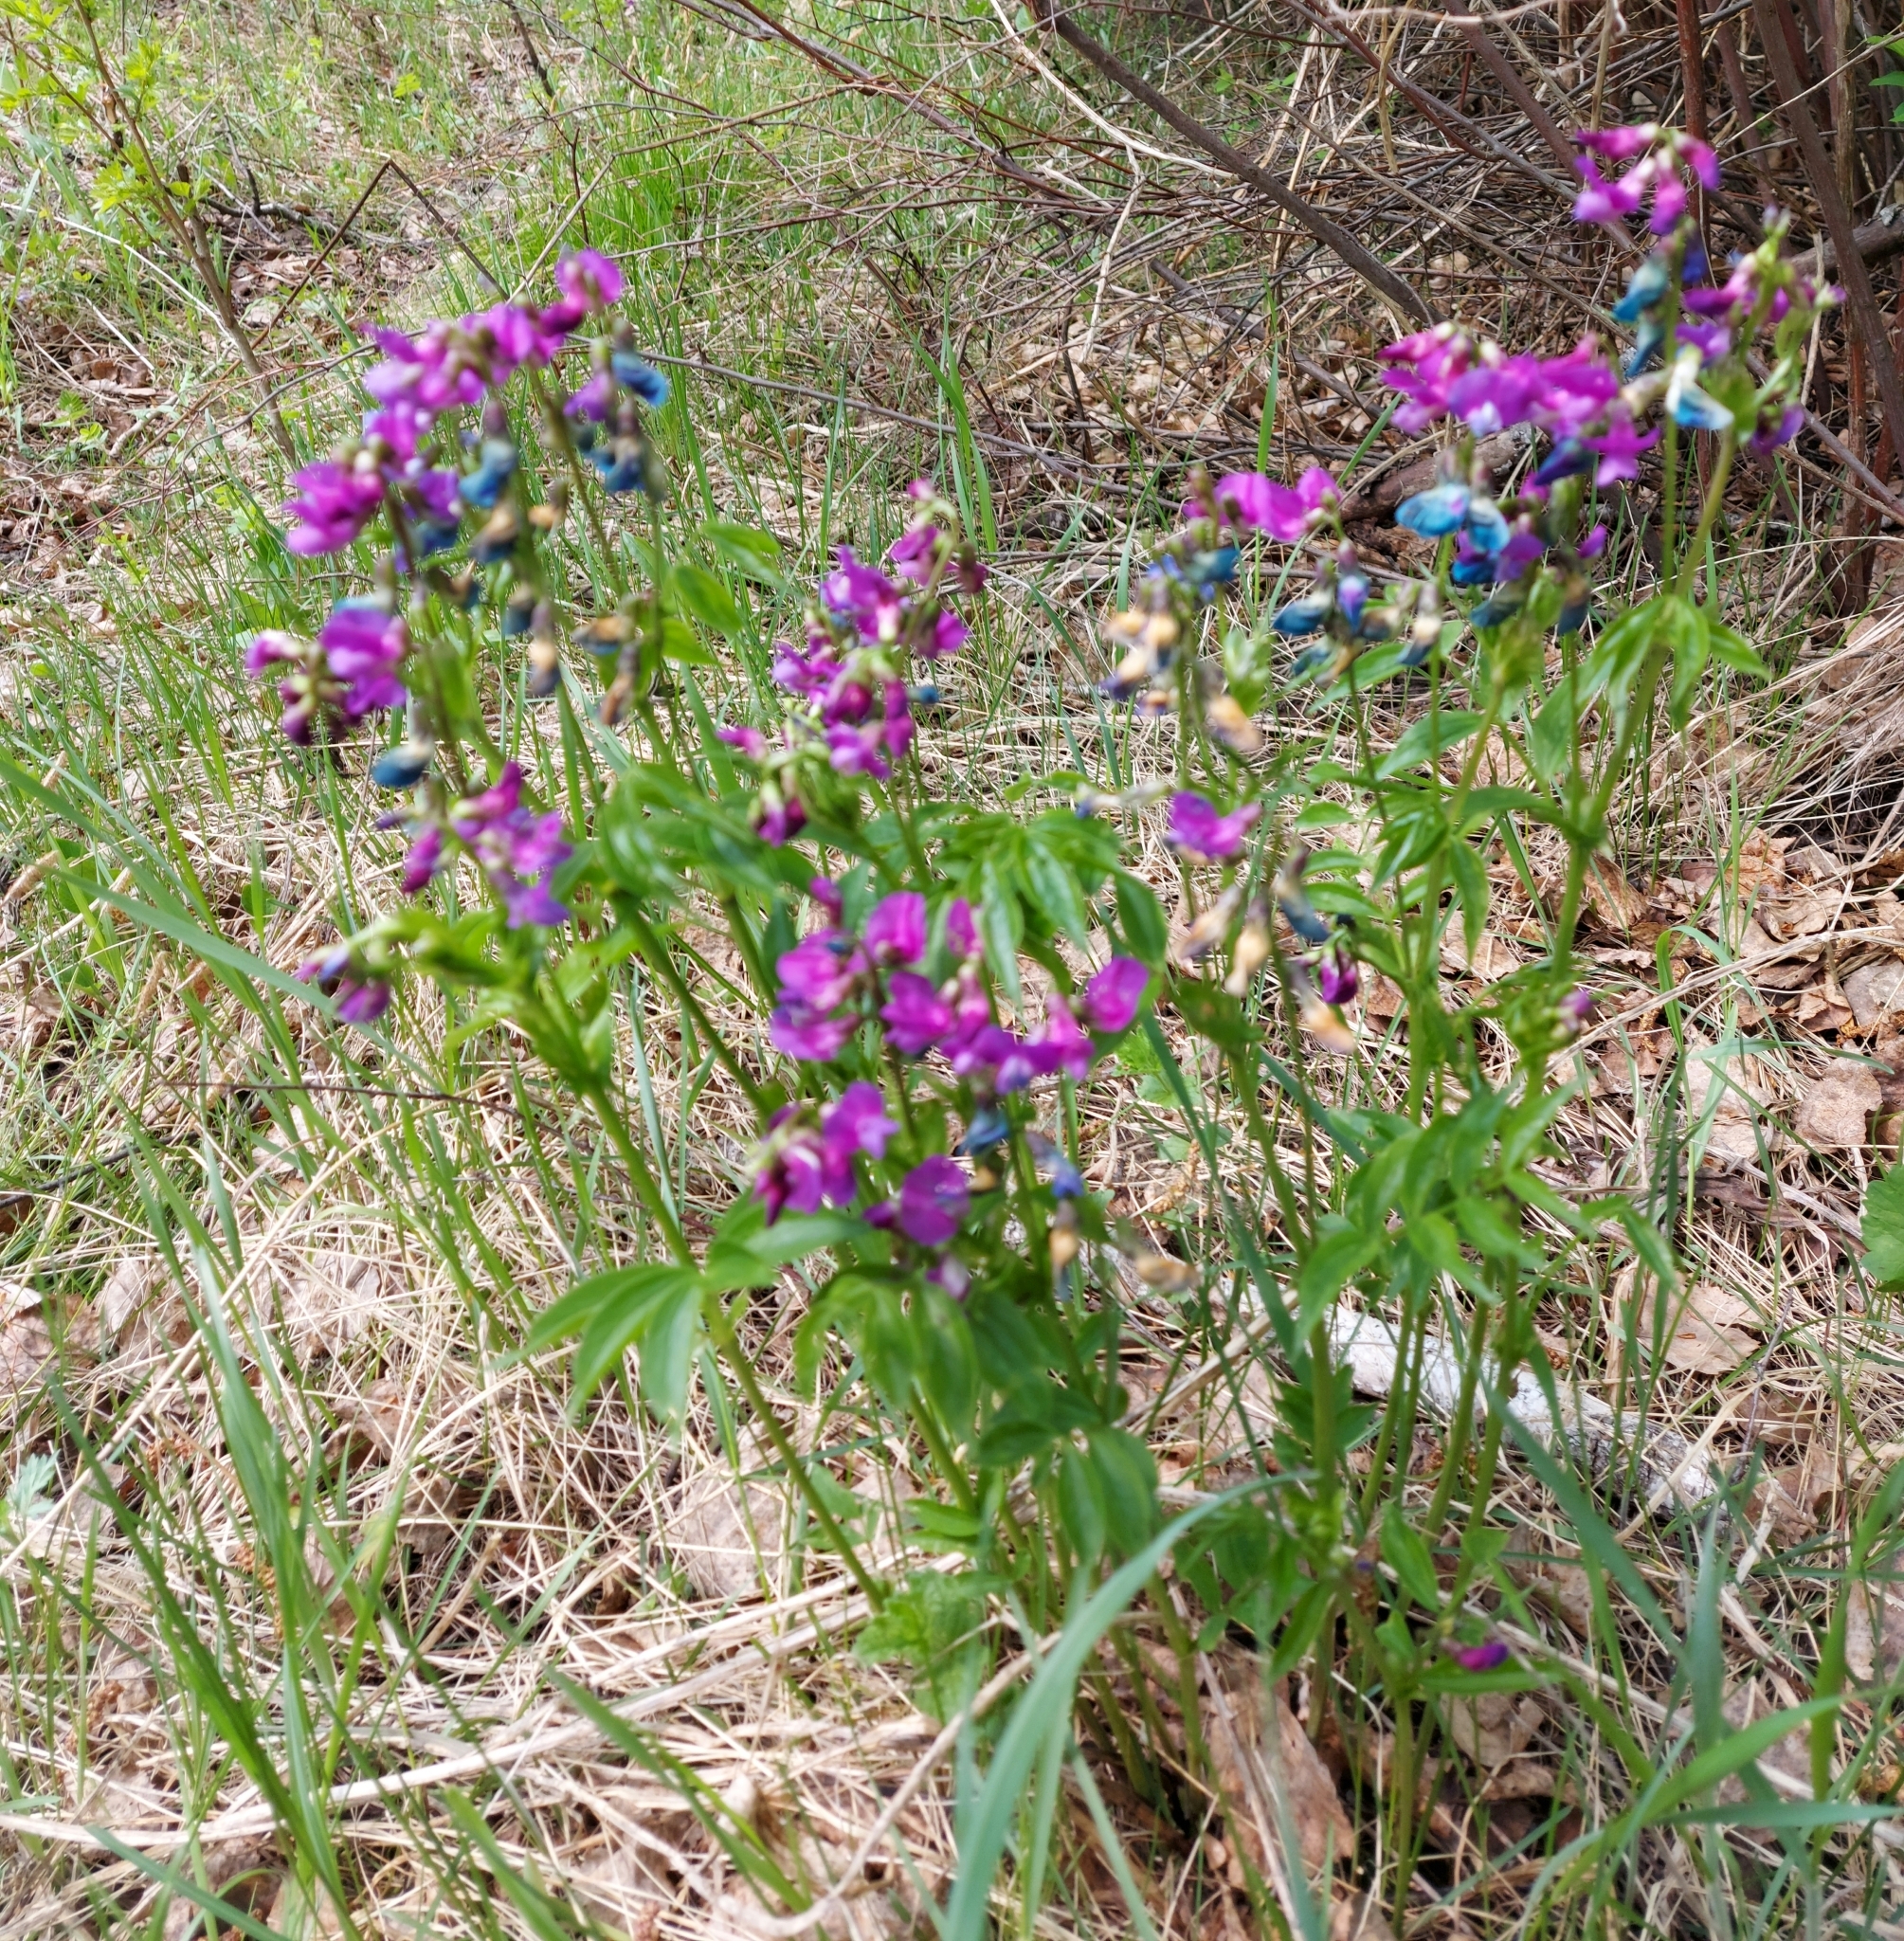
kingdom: Plantae
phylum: Tracheophyta
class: Magnoliopsida
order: Fabales
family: Fabaceae
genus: Lathyrus
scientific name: Lathyrus vernus
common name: Spring pea
